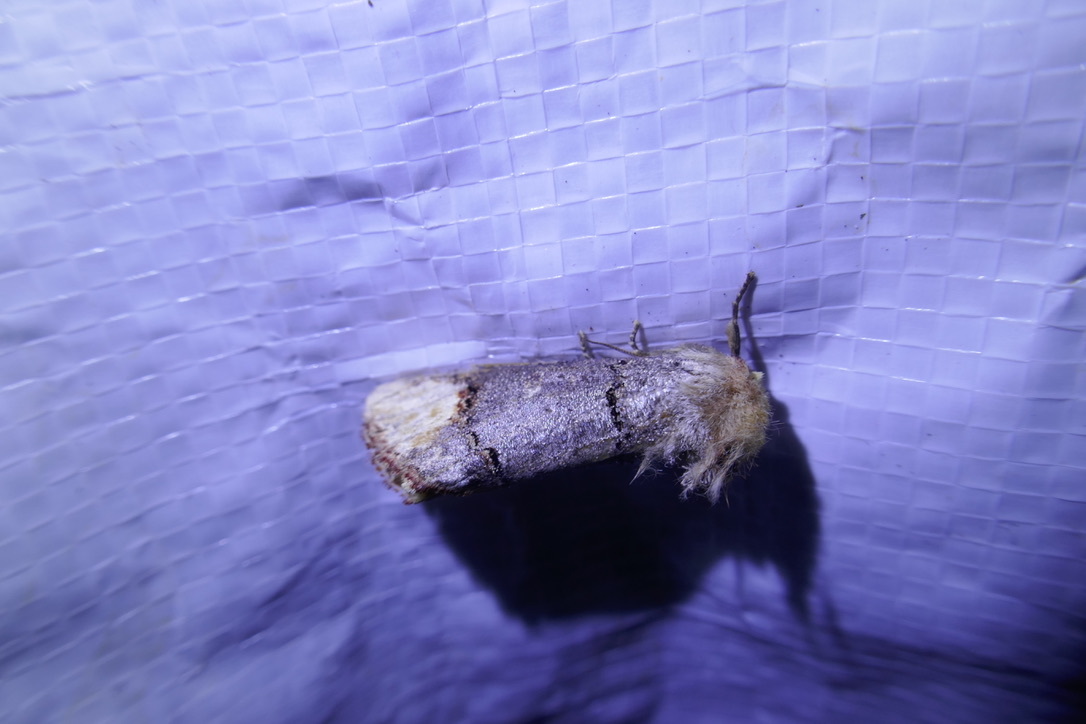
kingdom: Animalia
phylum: Arthropoda
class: Insecta
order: Lepidoptera
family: Notodontidae
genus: Phalera
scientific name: Phalera bucephala
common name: Buff-tip
